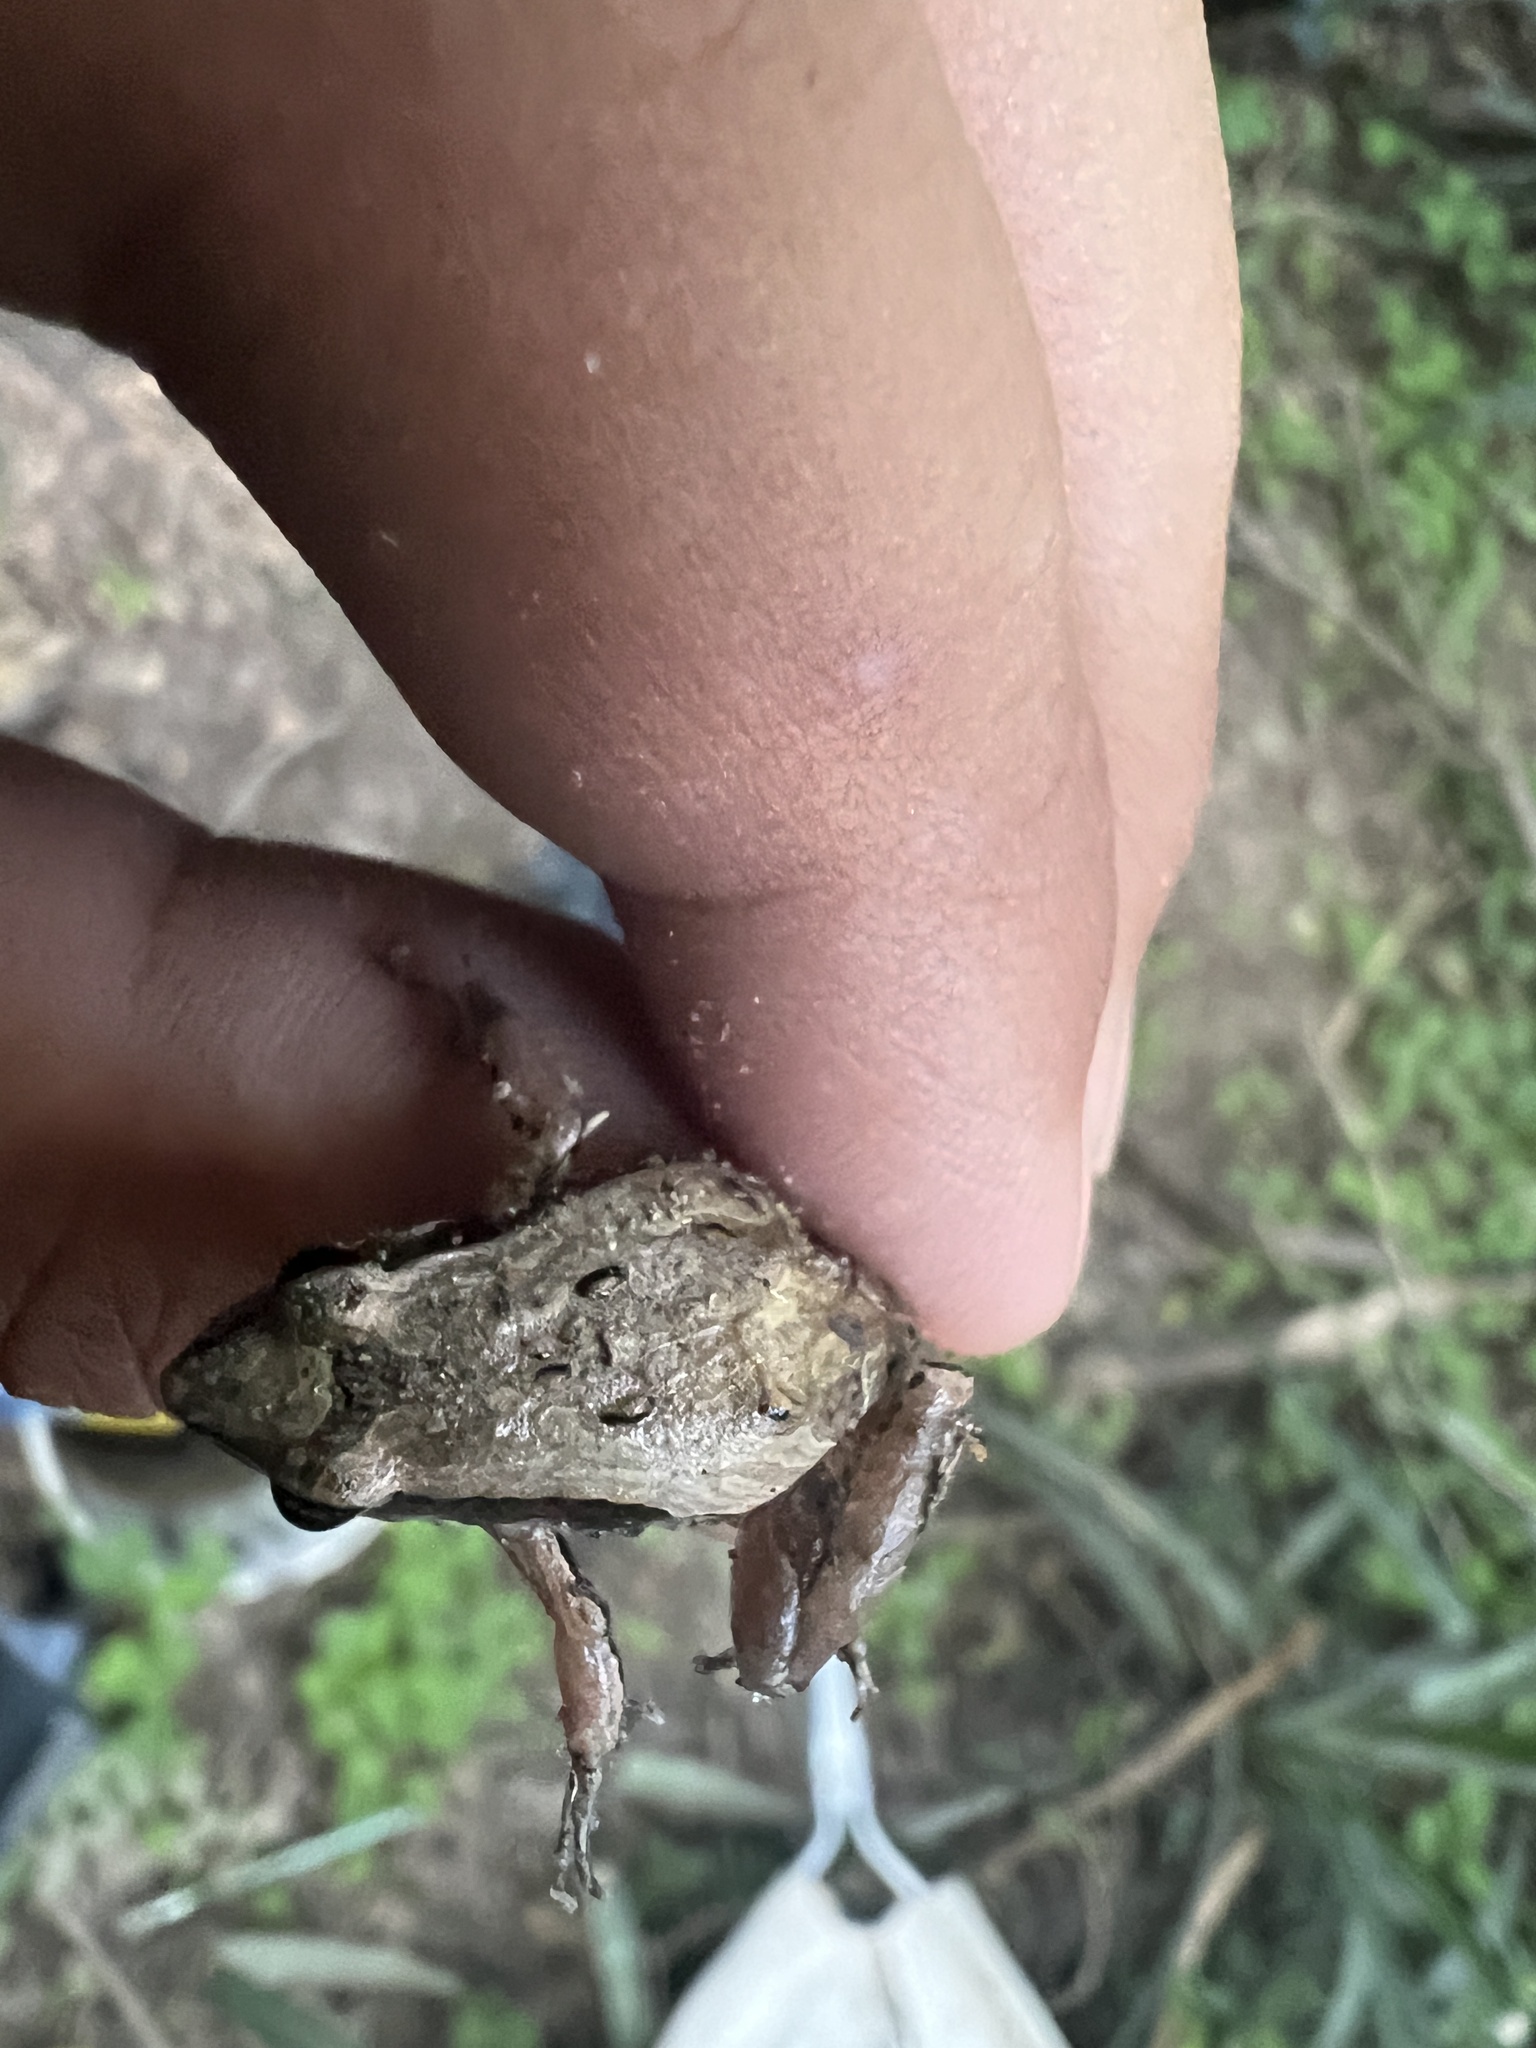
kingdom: Animalia
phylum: Chordata
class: Amphibia
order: Anura
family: Leptodactylidae
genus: Physalaemus
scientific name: Physalaemus cuvieri
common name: Barker frog
